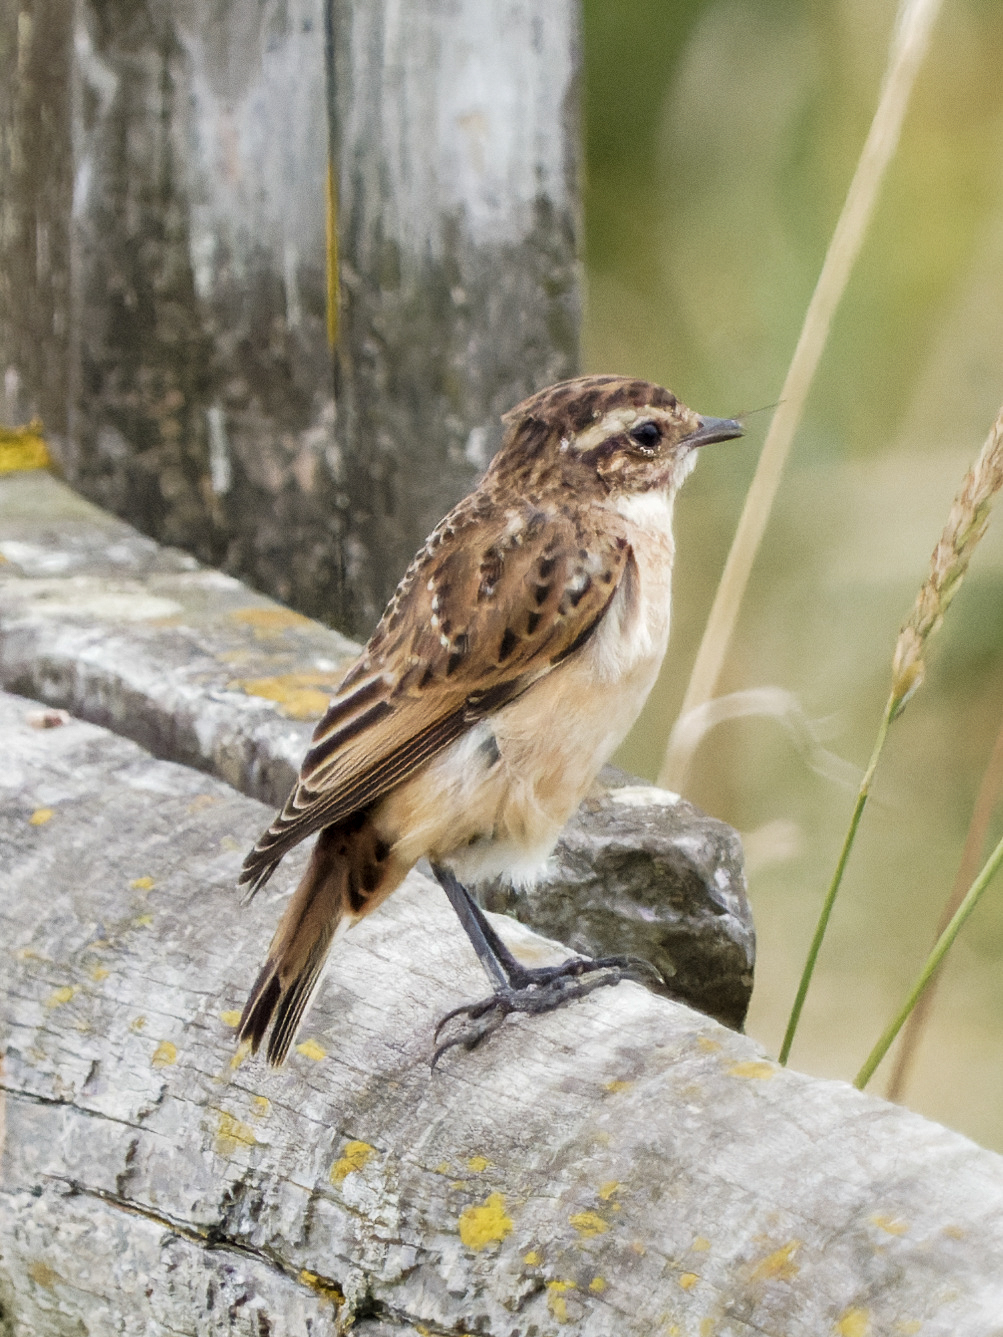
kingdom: Animalia
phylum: Chordata
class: Aves
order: Passeriformes
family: Muscicapidae
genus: Saxicola
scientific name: Saxicola rubetra
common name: Whinchat
